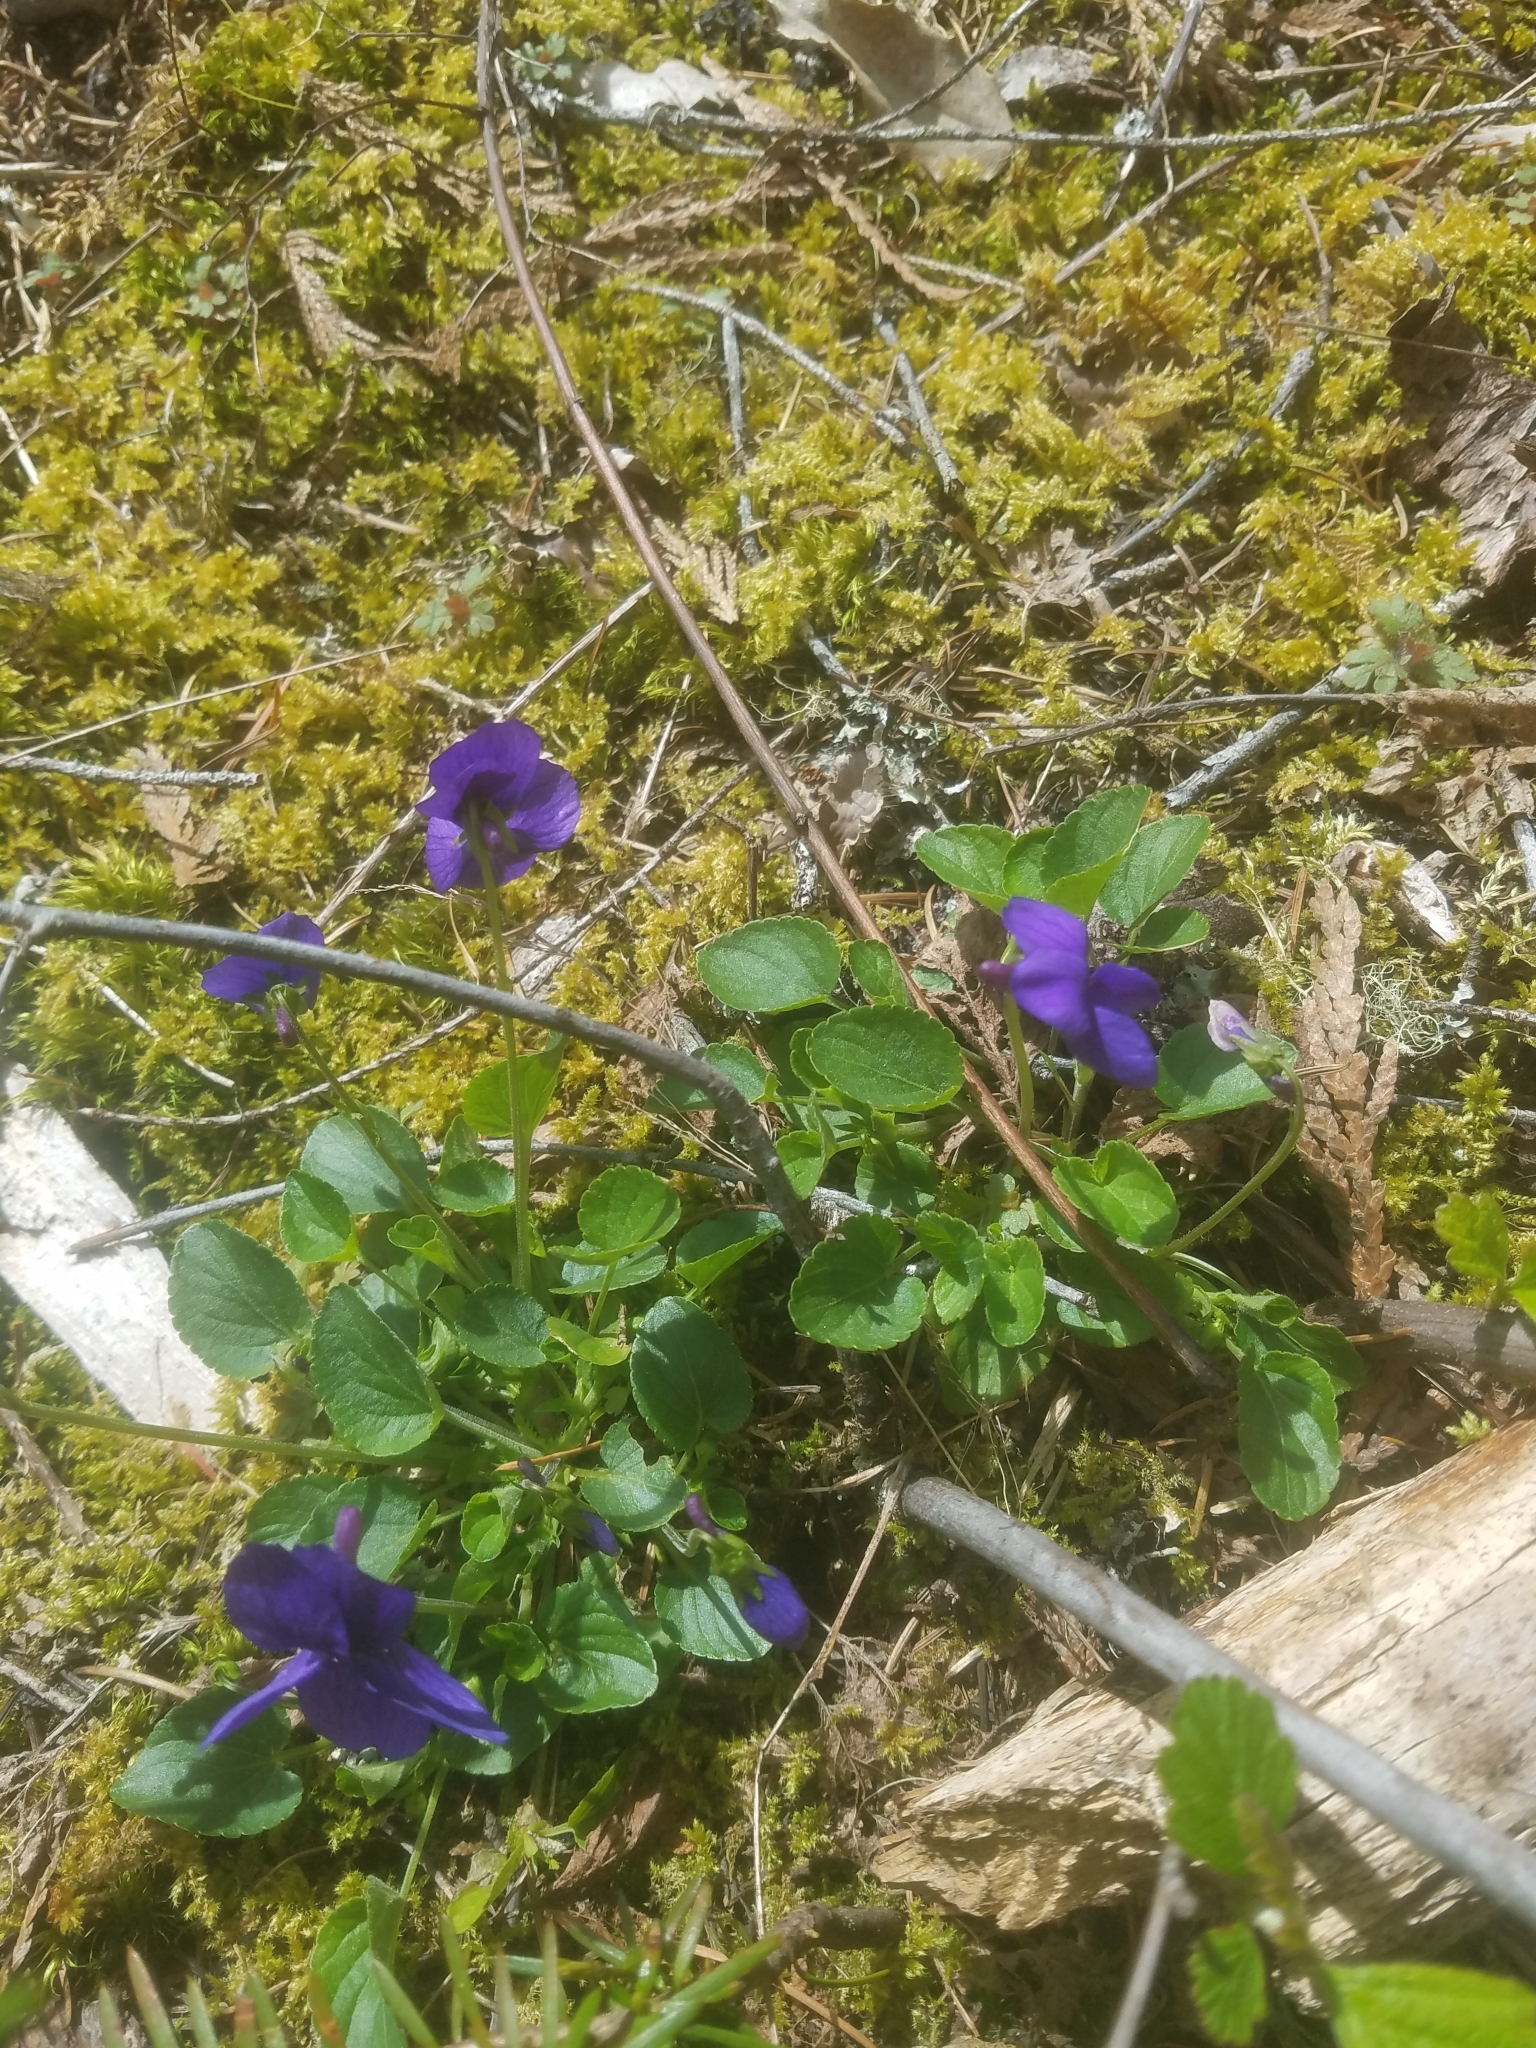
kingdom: Plantae
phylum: Tracheophyta
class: Magnoliopsida
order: Malpighiales
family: Violaceae
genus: Viola
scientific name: Viola adunca
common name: Sand violet
